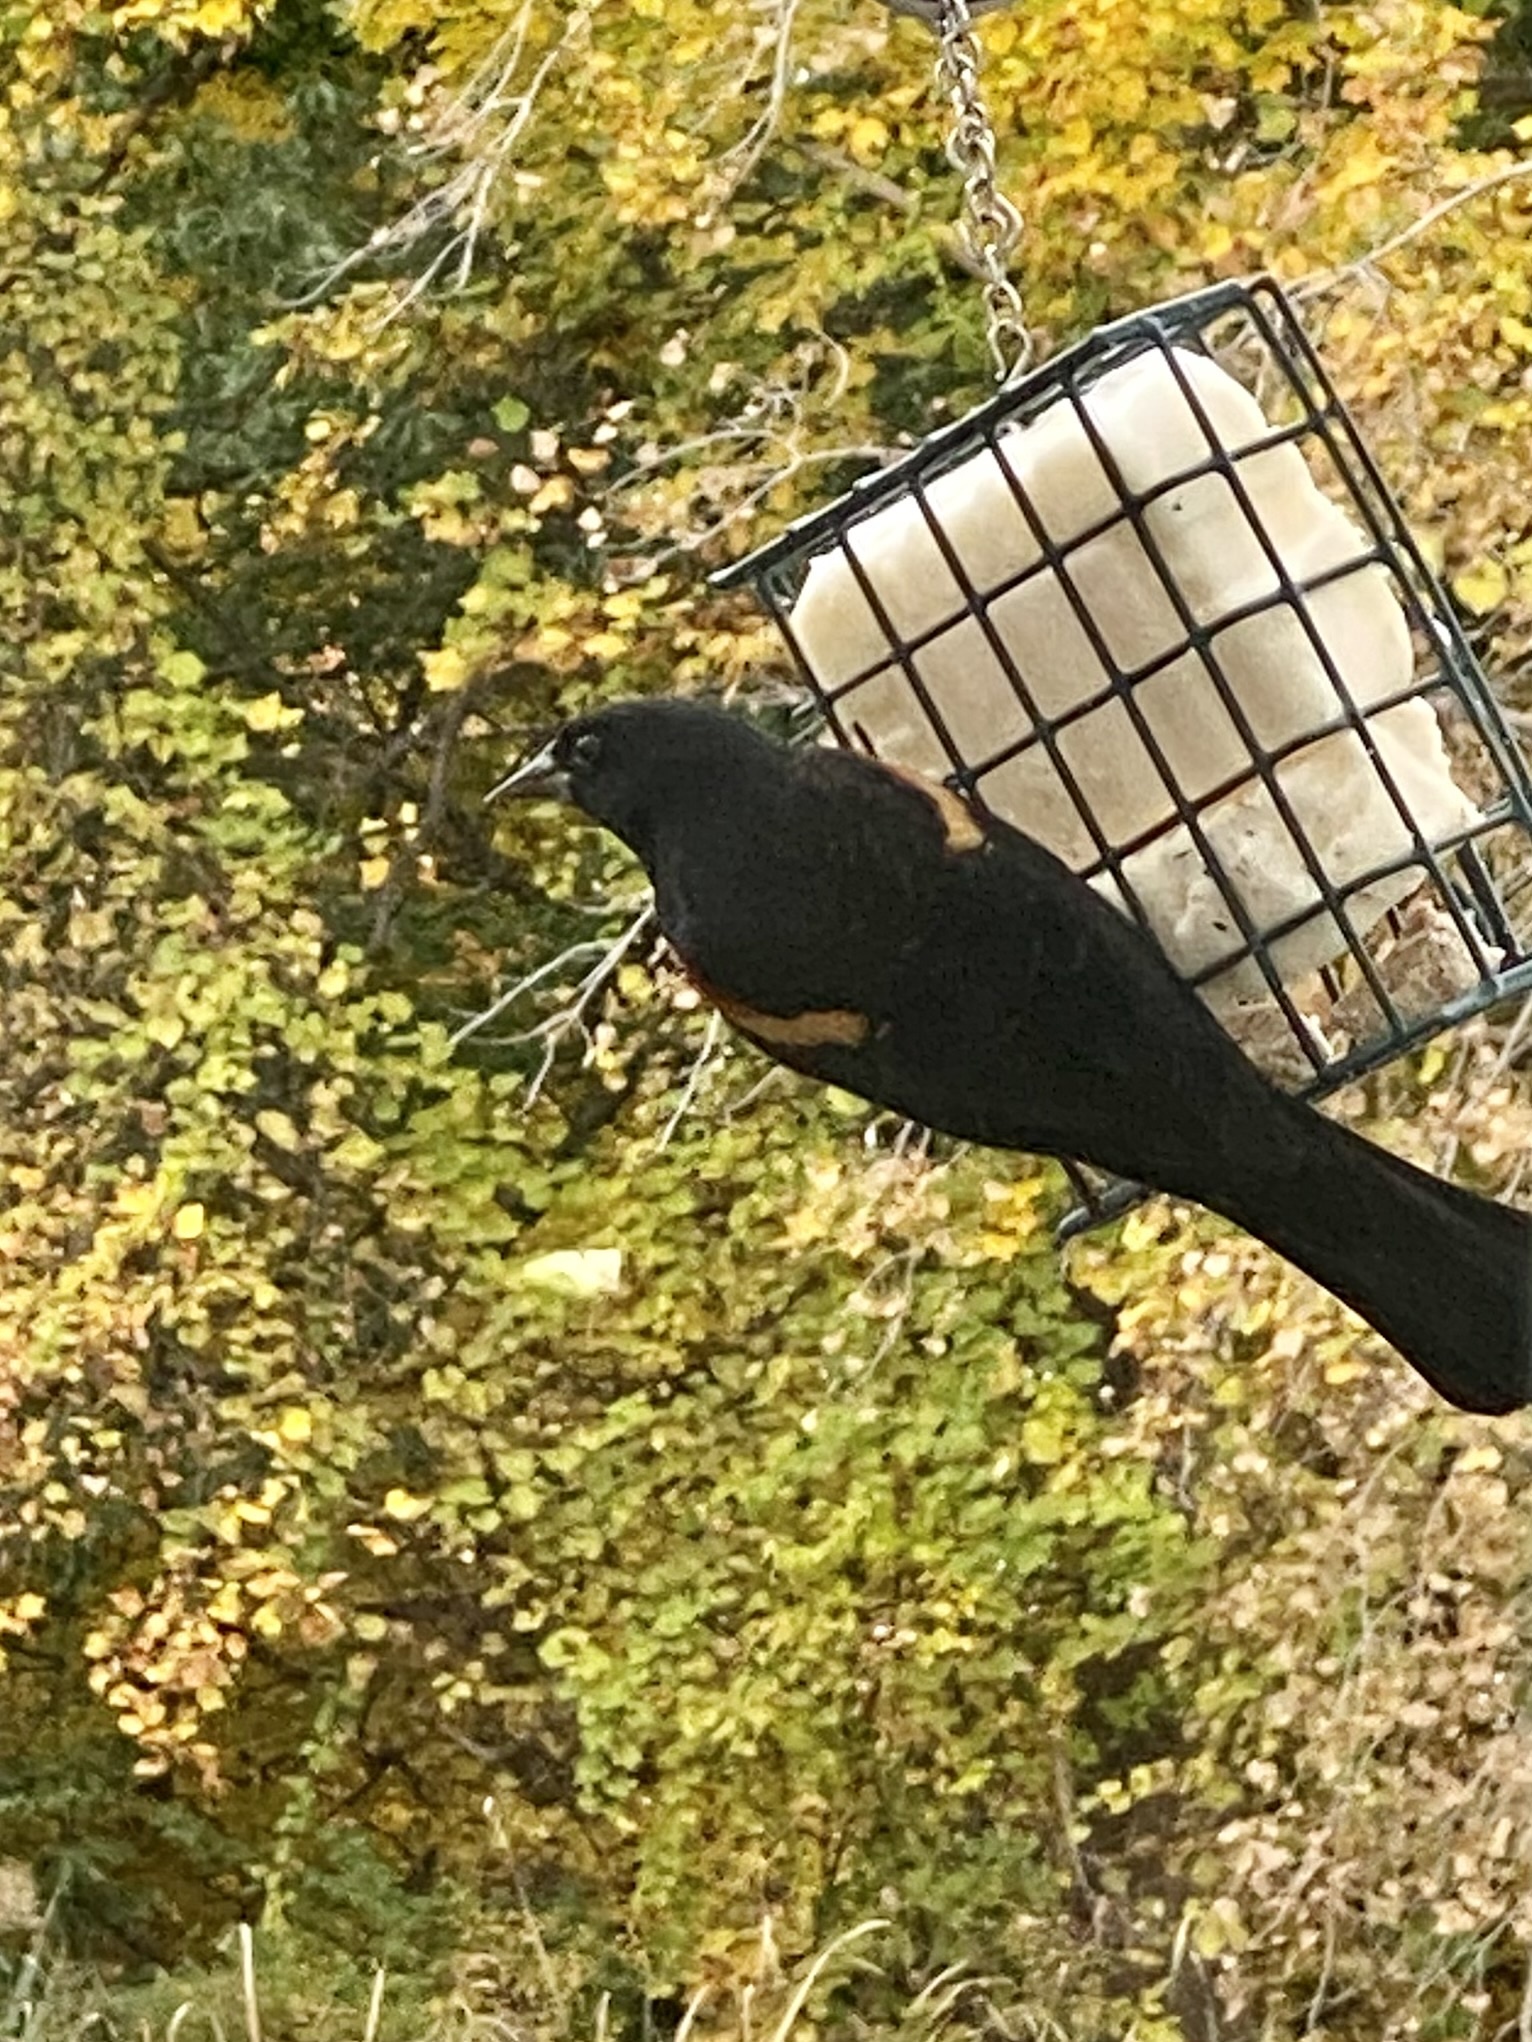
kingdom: Animalia
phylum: Chordata
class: Aves
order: Passeriformes
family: Icteridae
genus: Agelaius
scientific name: Agelaius phoeniceus
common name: Red-winged blackbird
